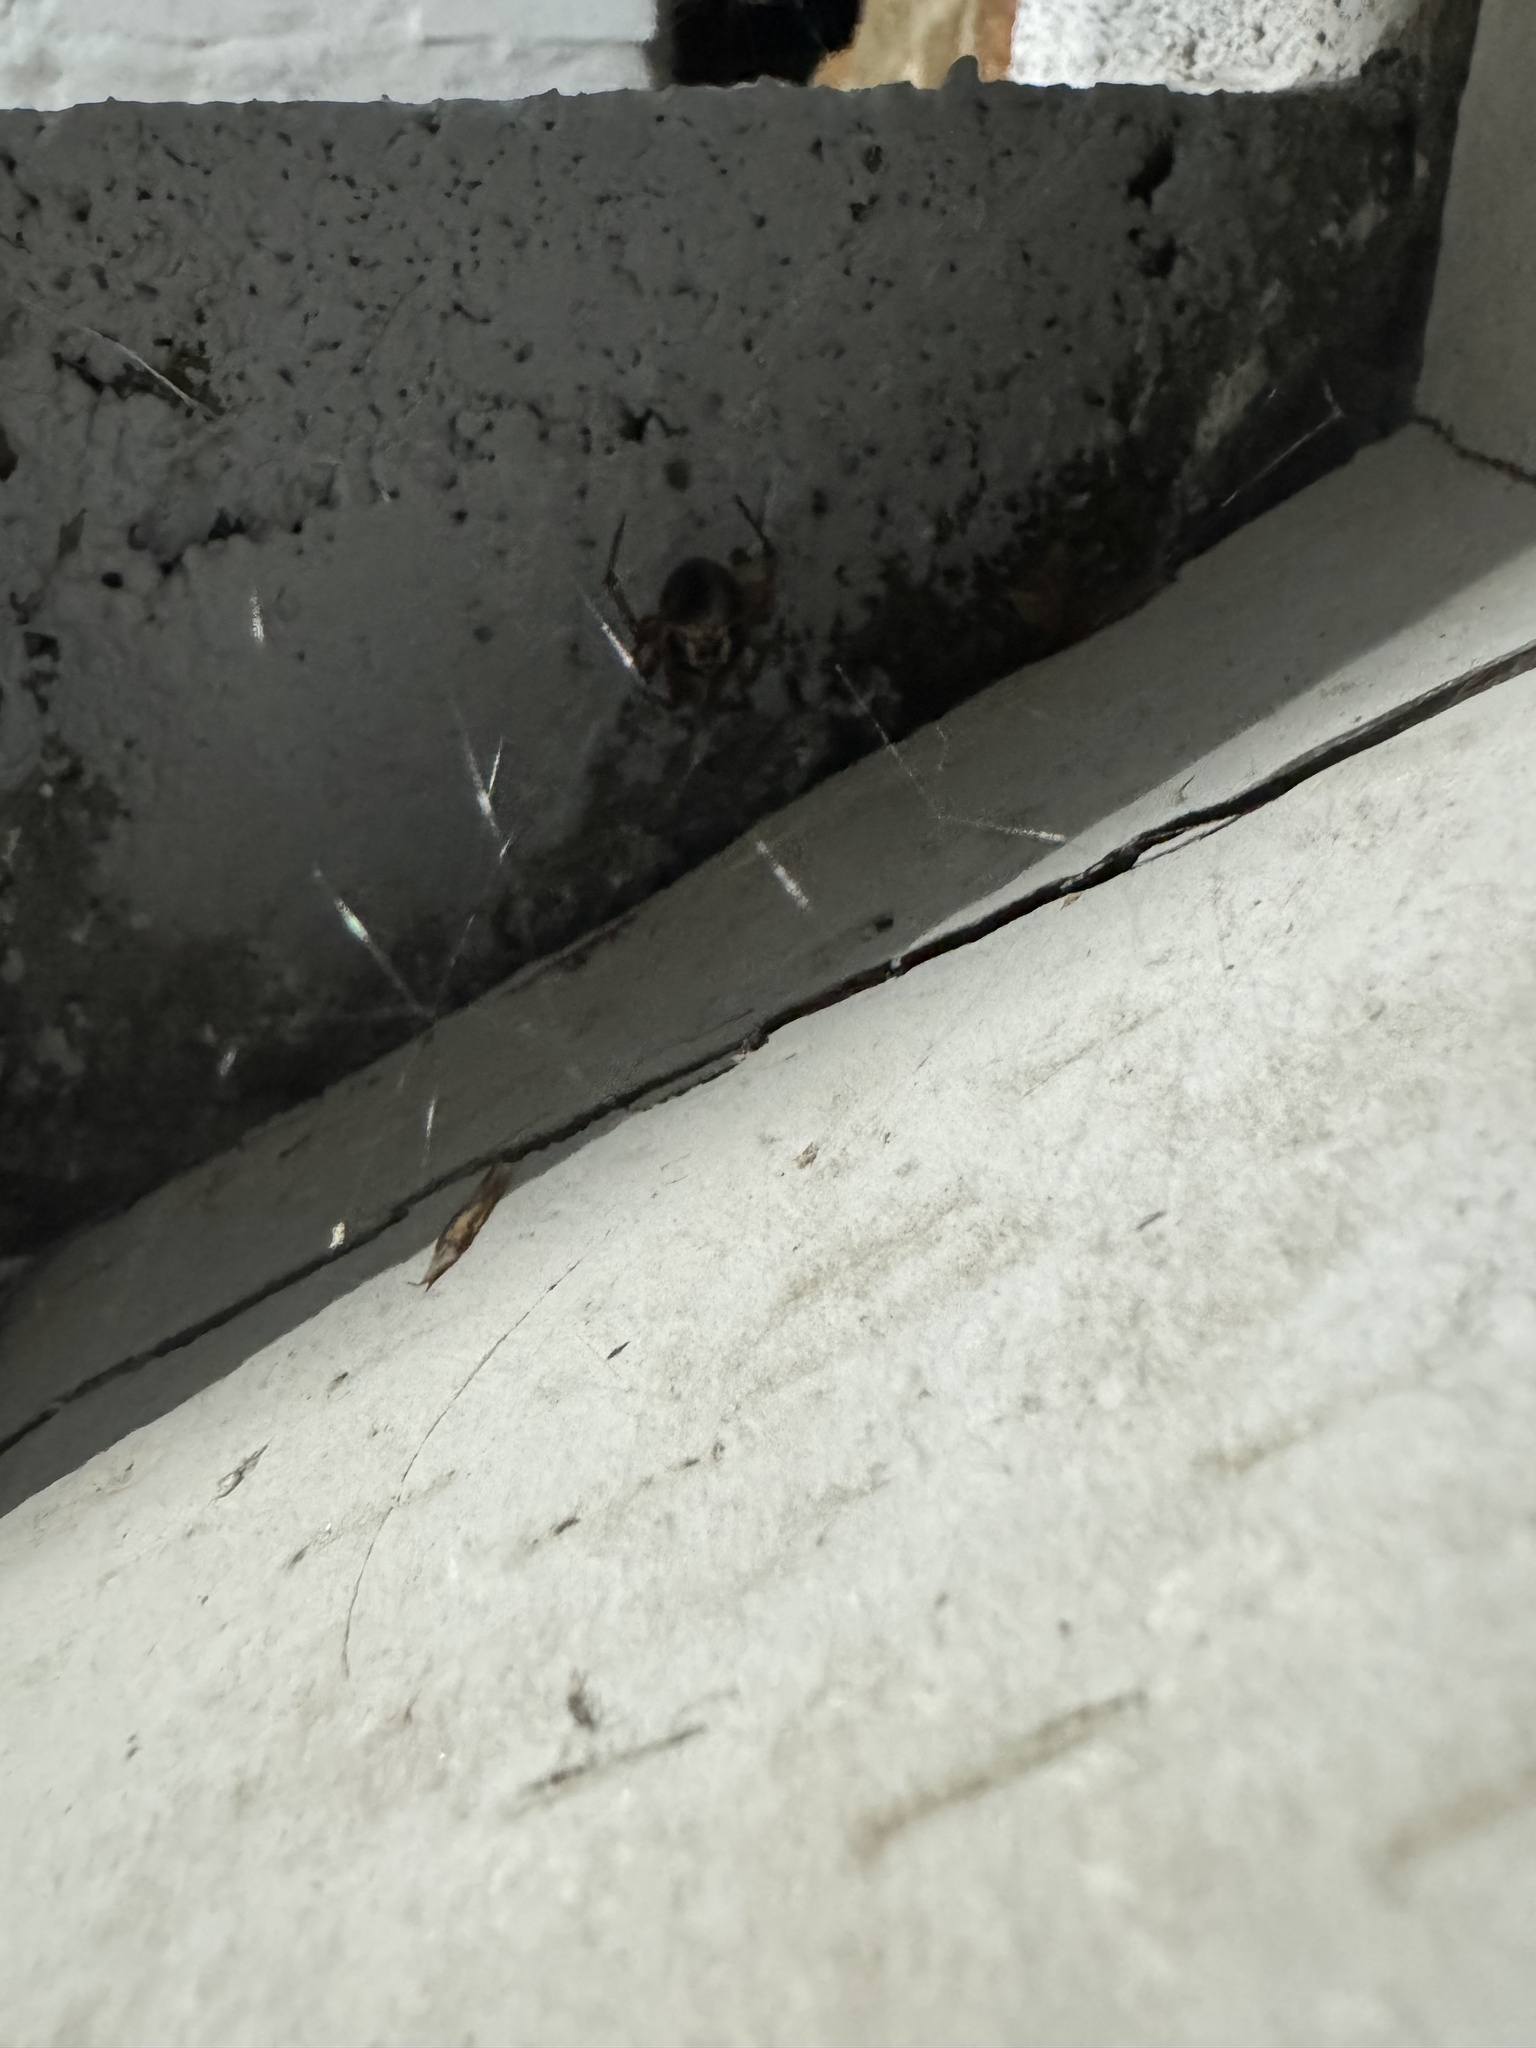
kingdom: Animalia
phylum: Arthropoda
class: Arachnida
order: Araneae
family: Theridiidae
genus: Steatoda
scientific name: Steatoda nobilis
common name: Cobweb weaver
